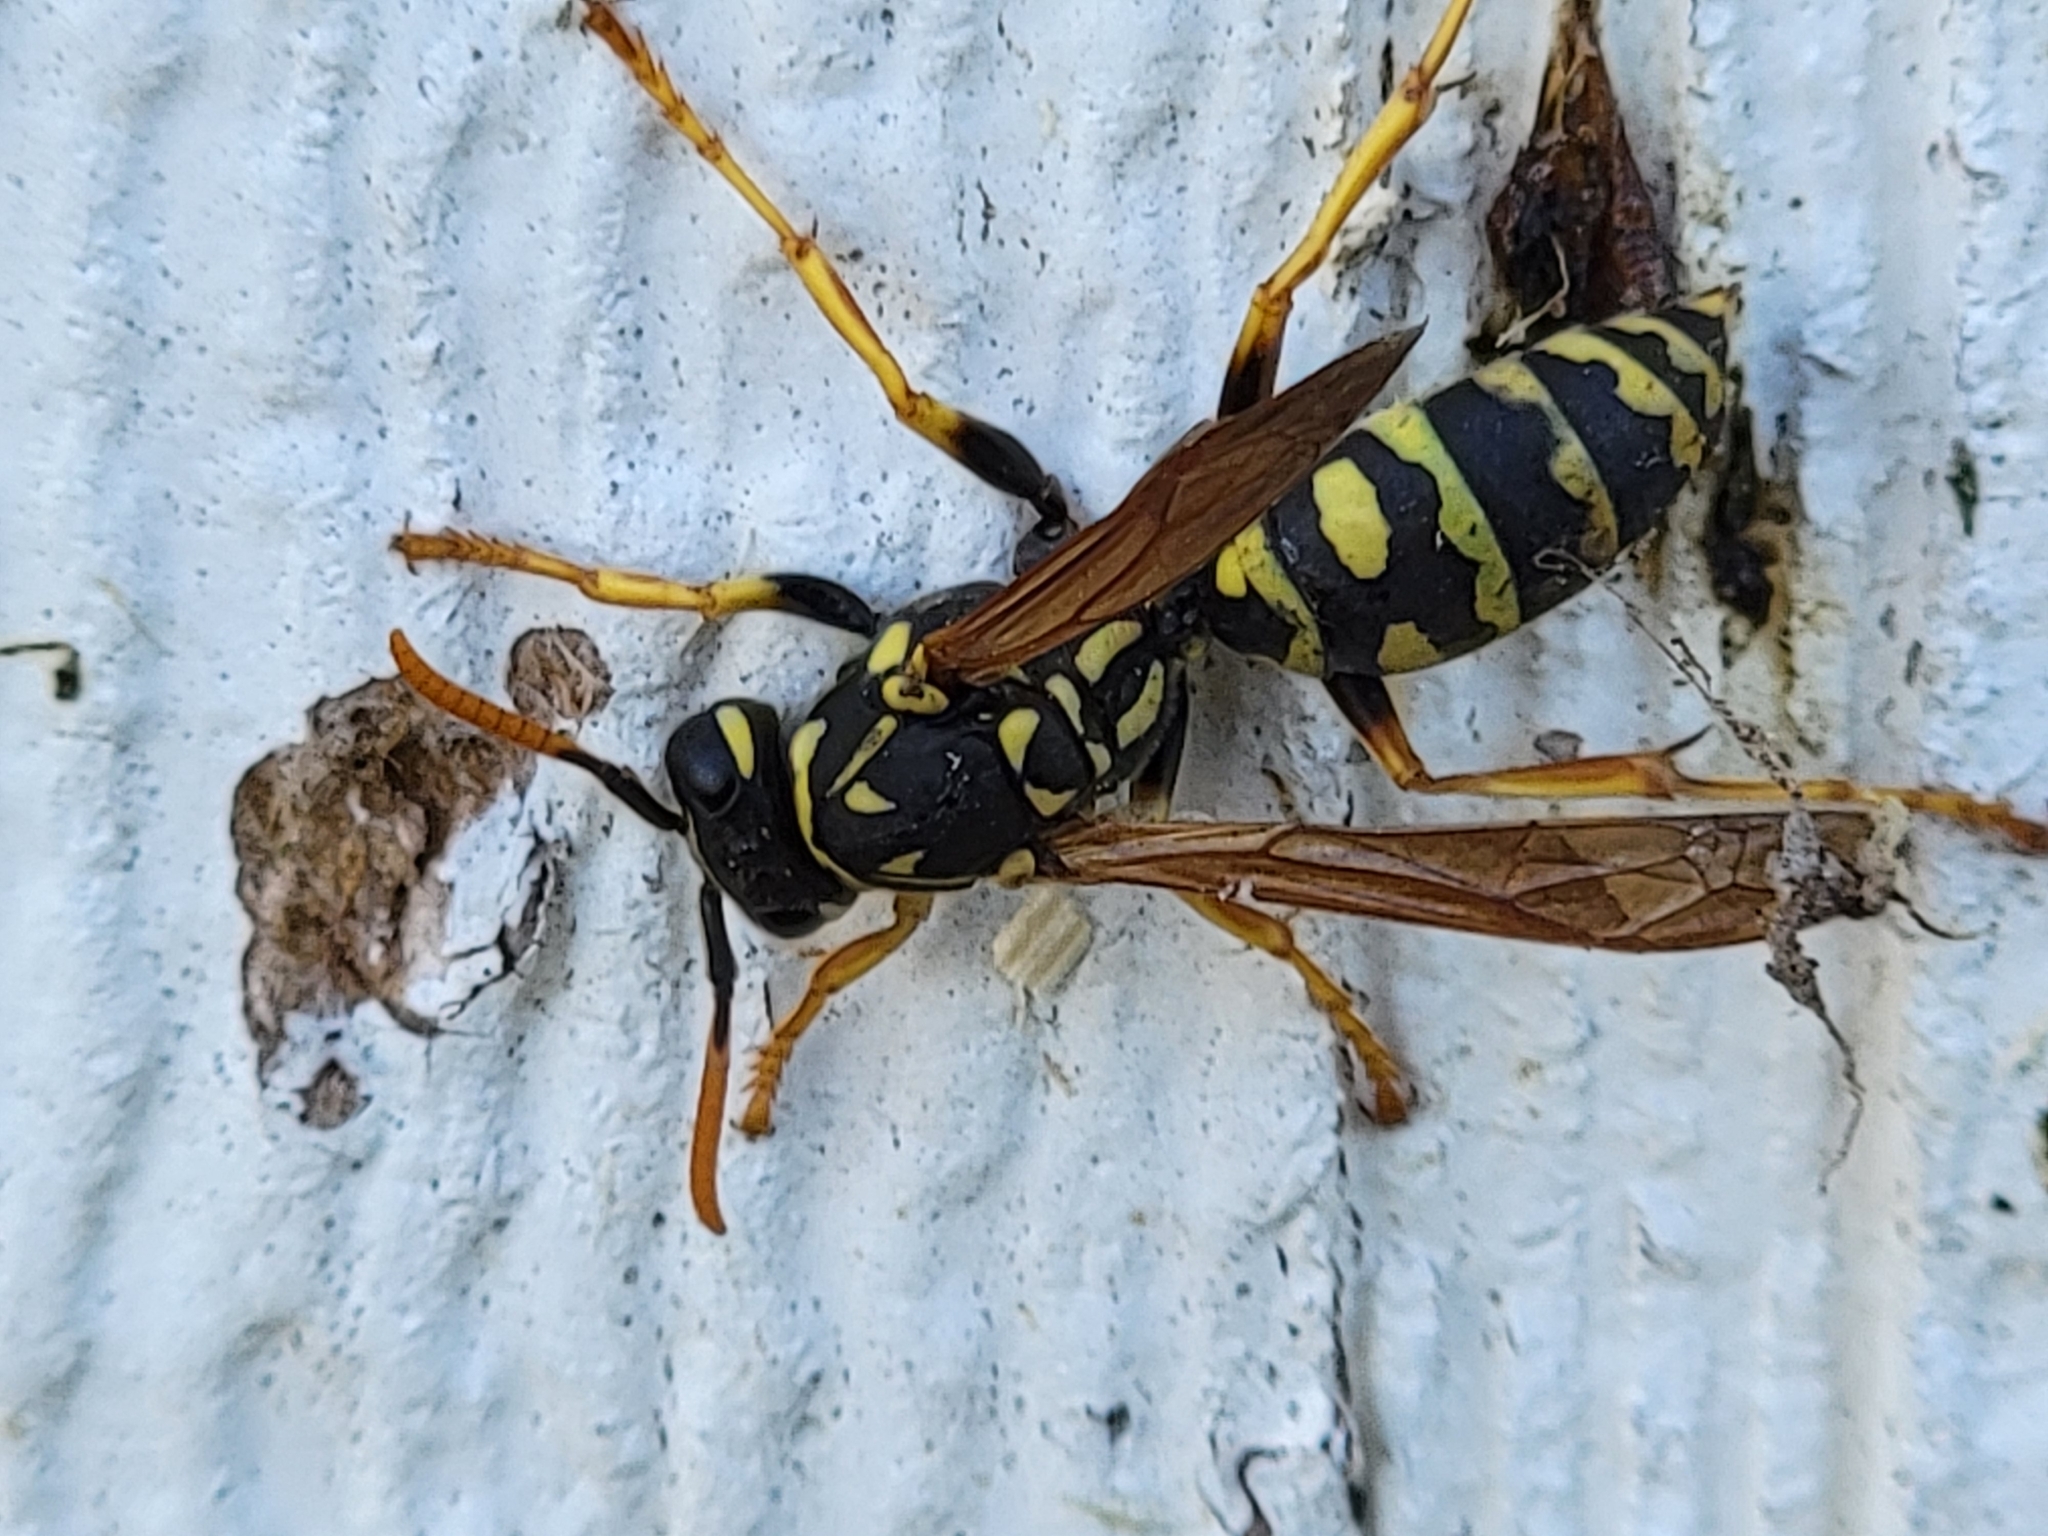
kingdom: Animalia
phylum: Arthropoda
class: Insecta
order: Hymenoptera
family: Eumenidae
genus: Polistes
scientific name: Polistes dominula
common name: Paper wasp
